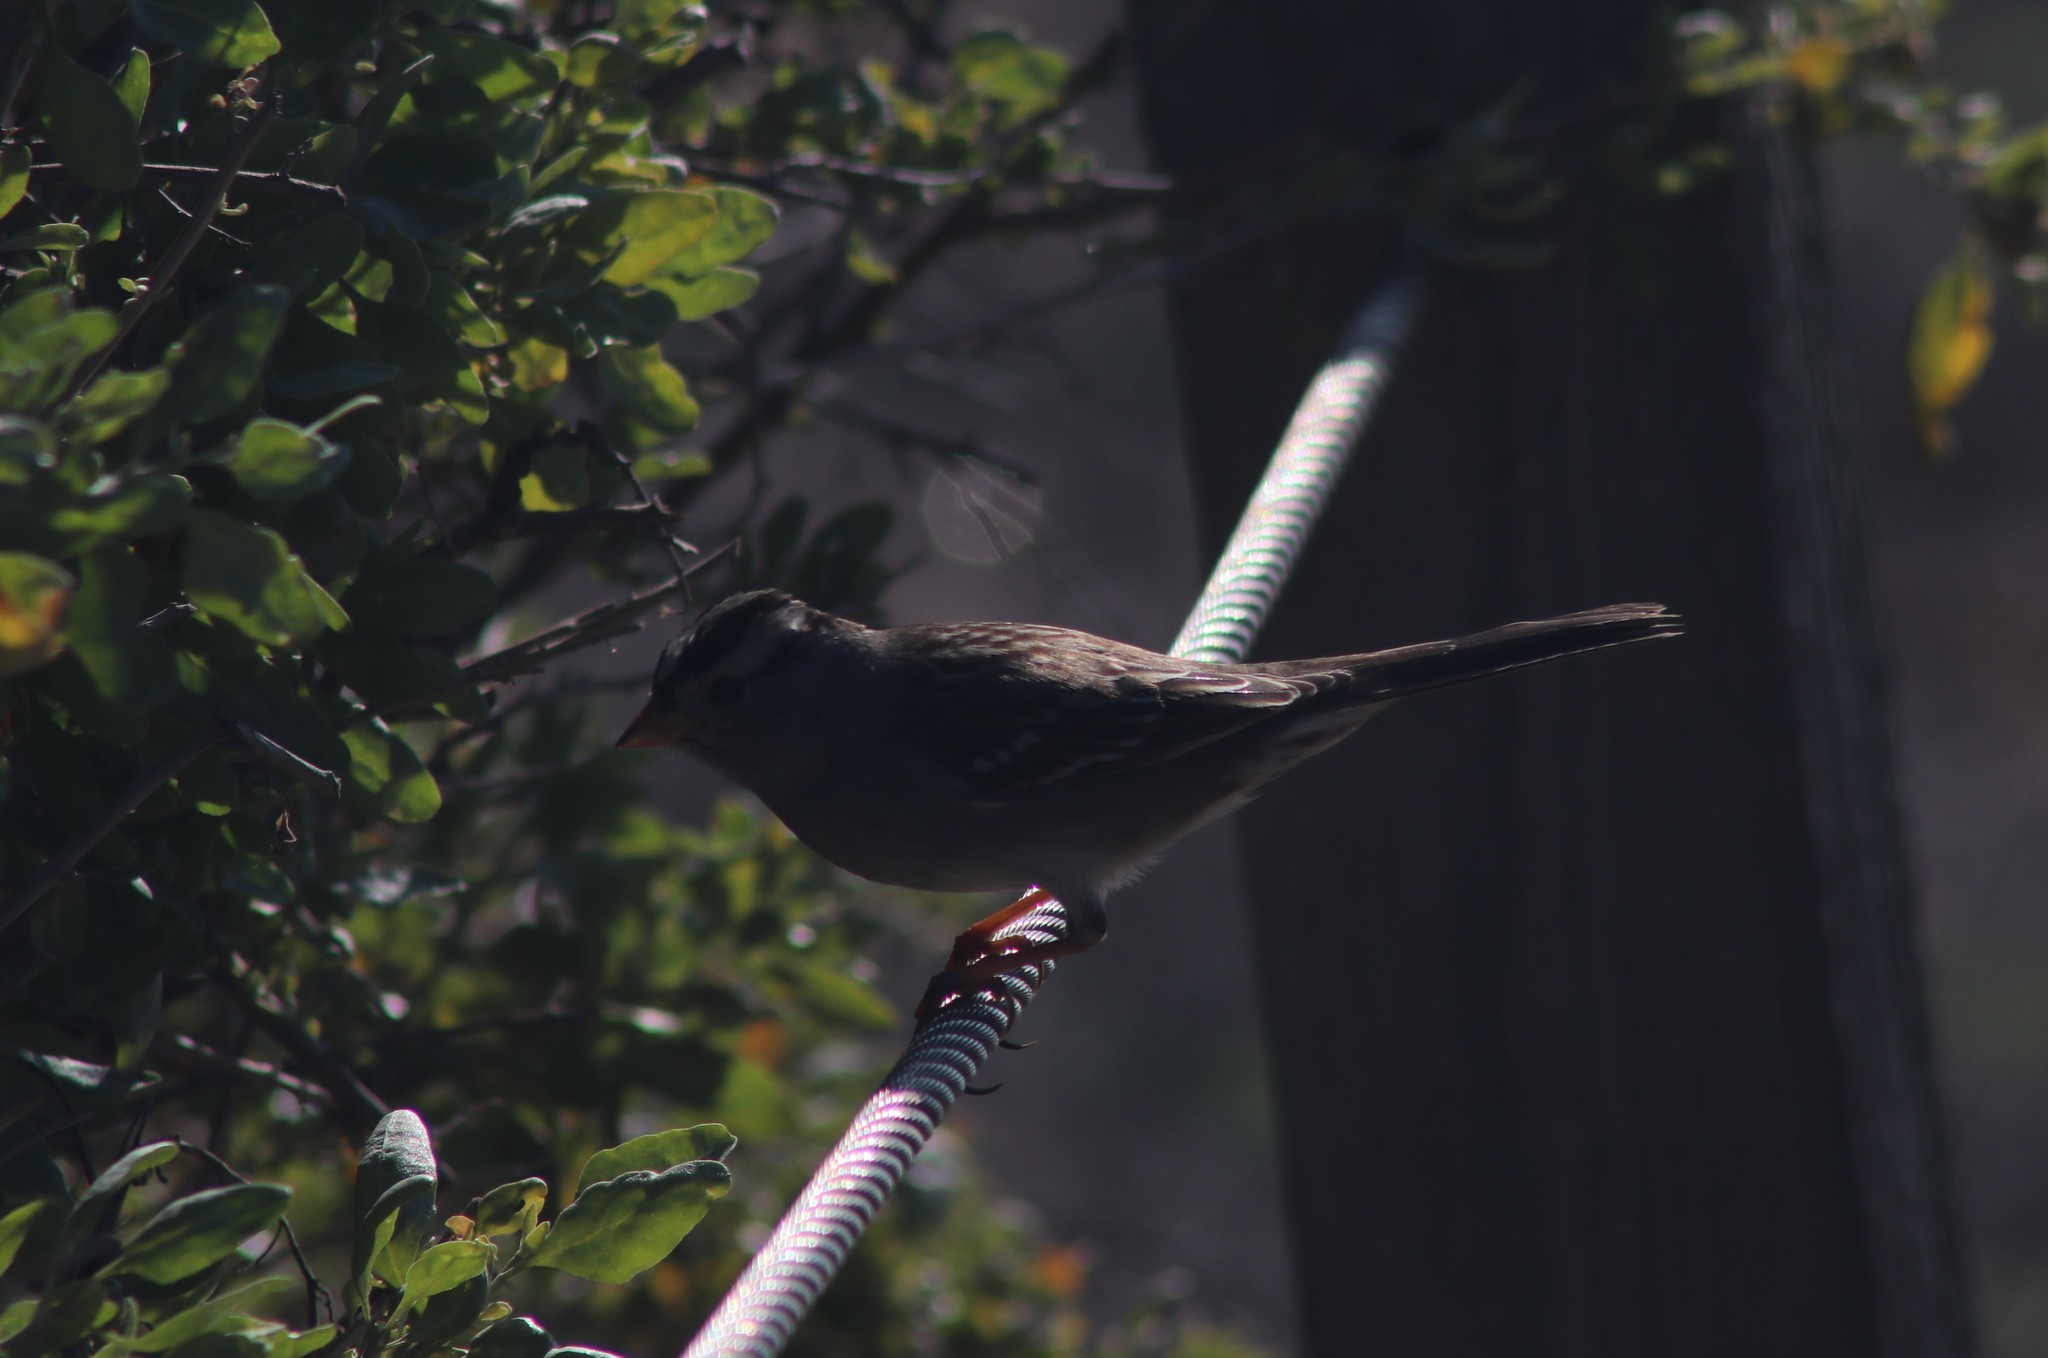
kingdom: Animalia
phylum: Chordata
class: Aves
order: Passeriformes
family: Passerellidae
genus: Zonotrichia
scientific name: Zonotrichia leucophrys
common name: White-crowned sparrow
